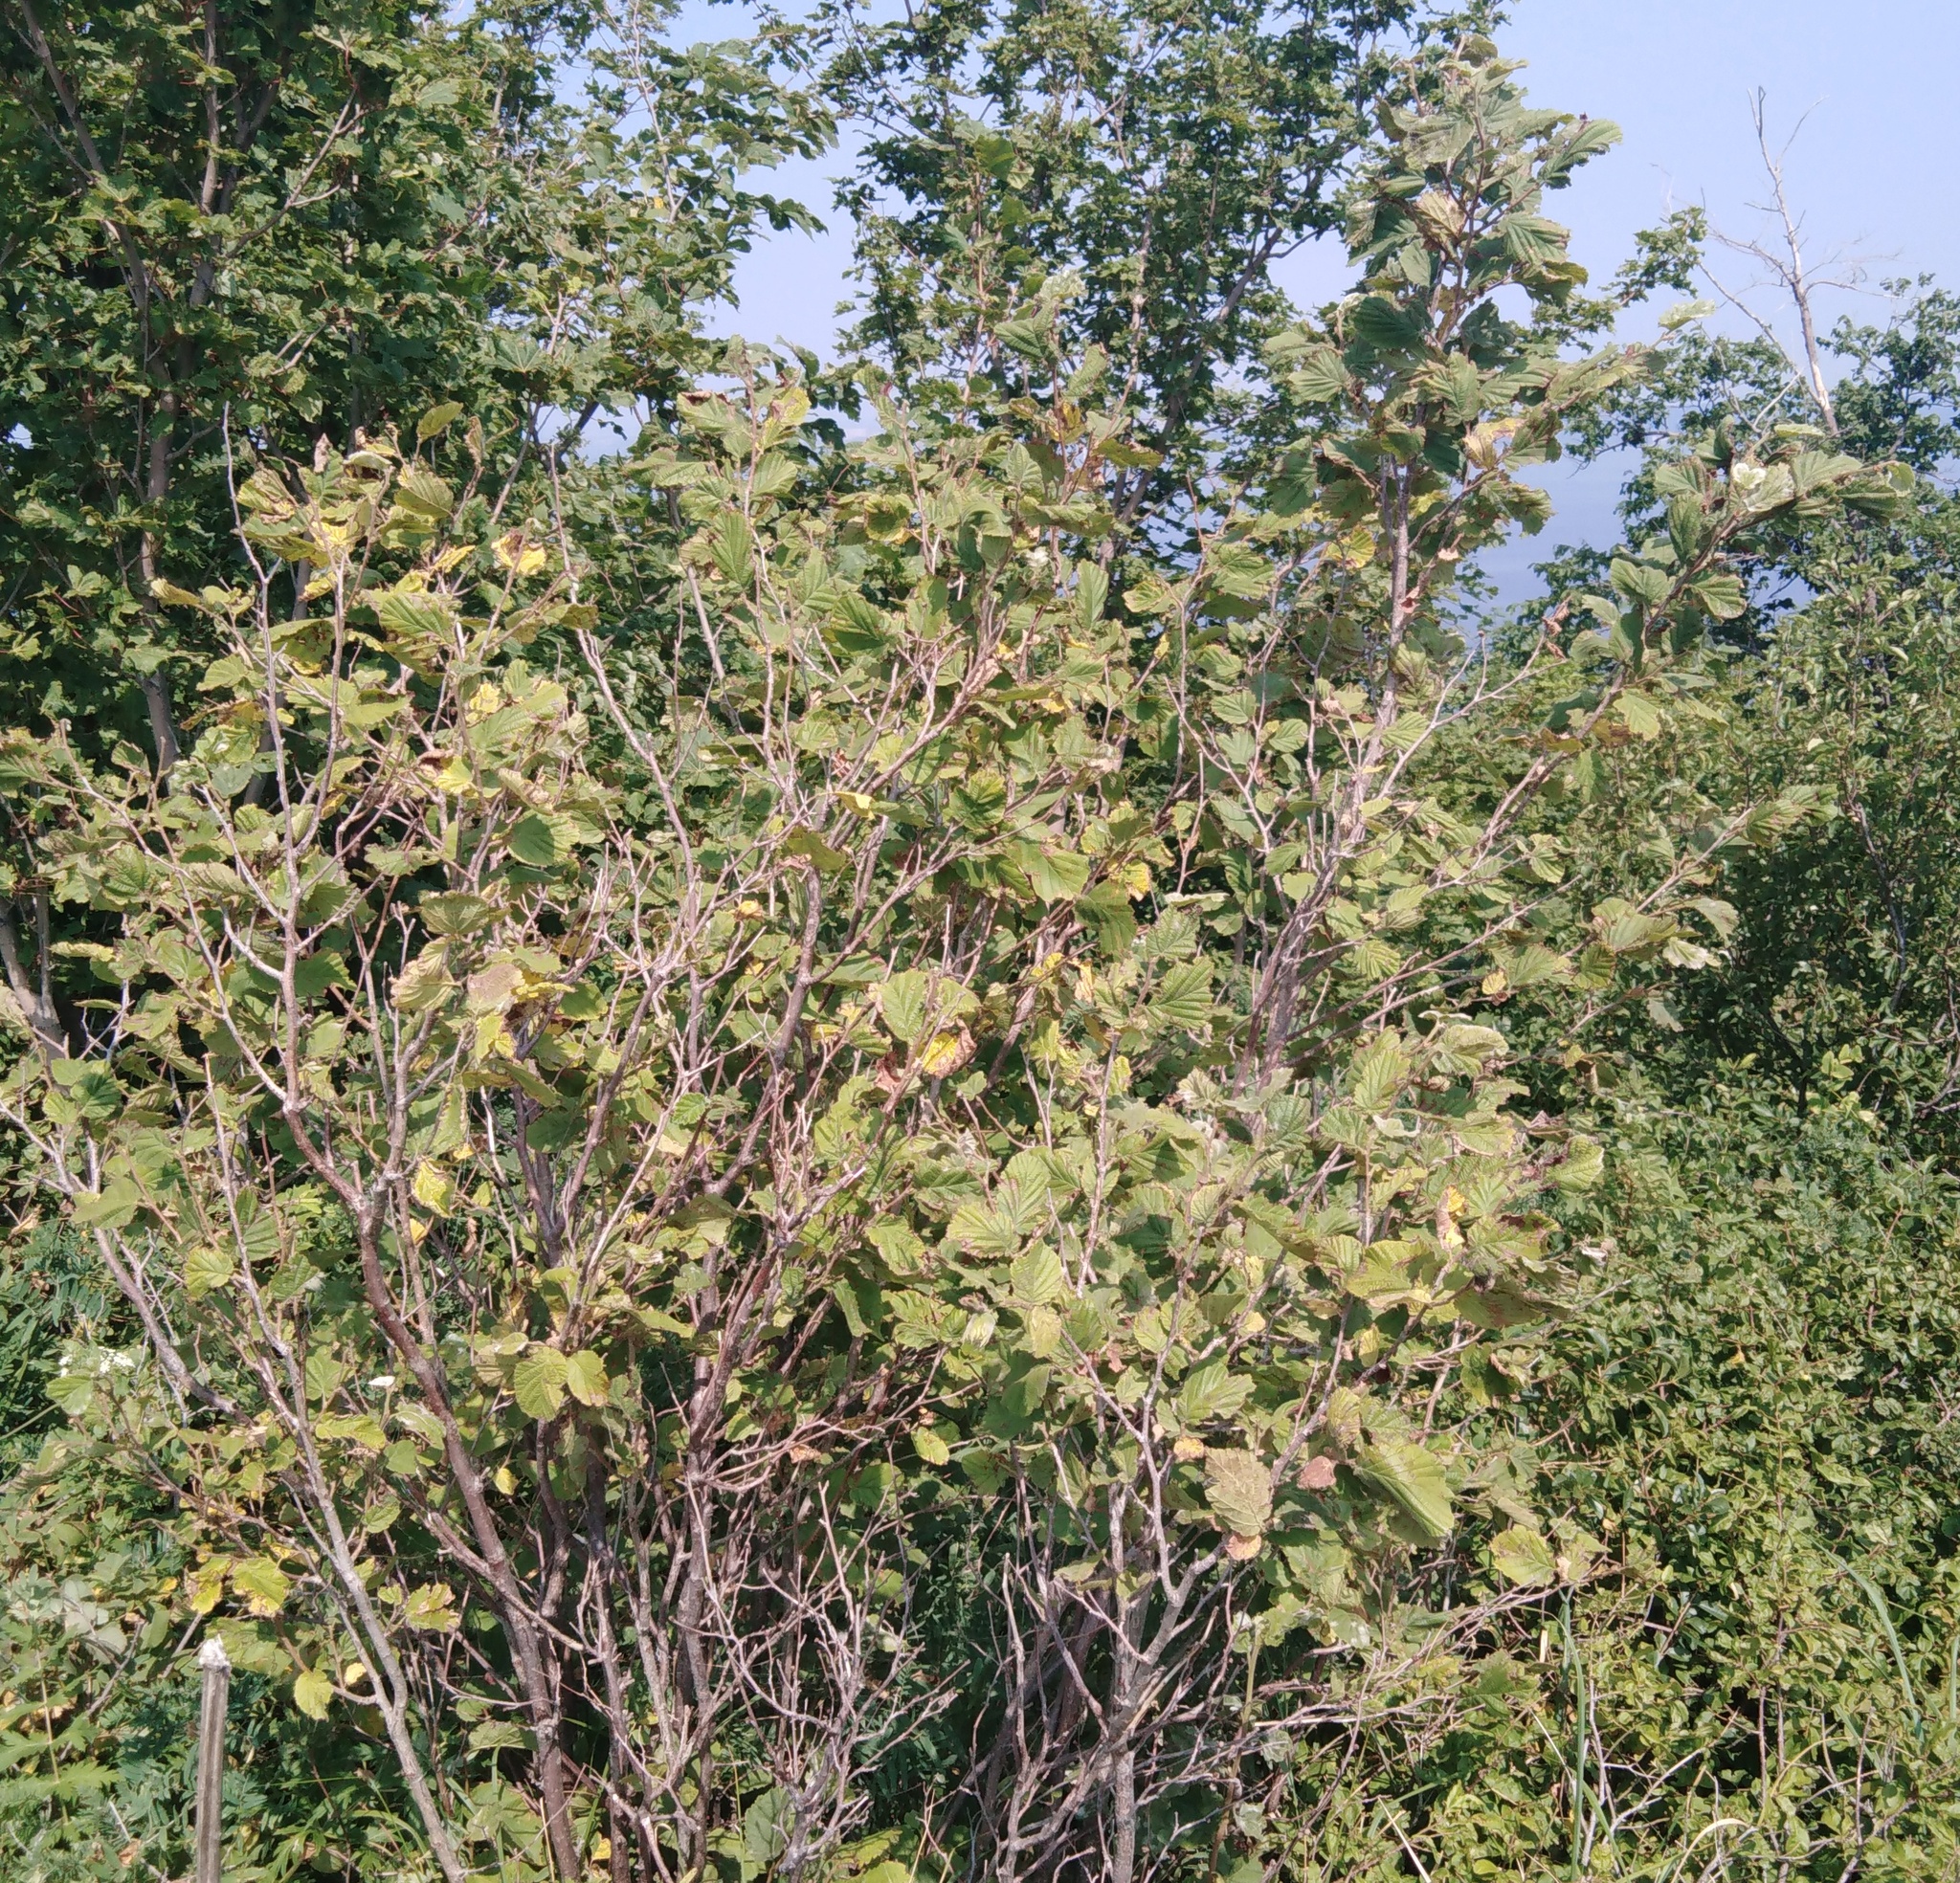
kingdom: Plantae
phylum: Tracheophyta
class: Magnoliopsida
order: Fagales
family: Betulaceae
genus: Corylus
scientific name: Corylus avellana
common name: European hazel
